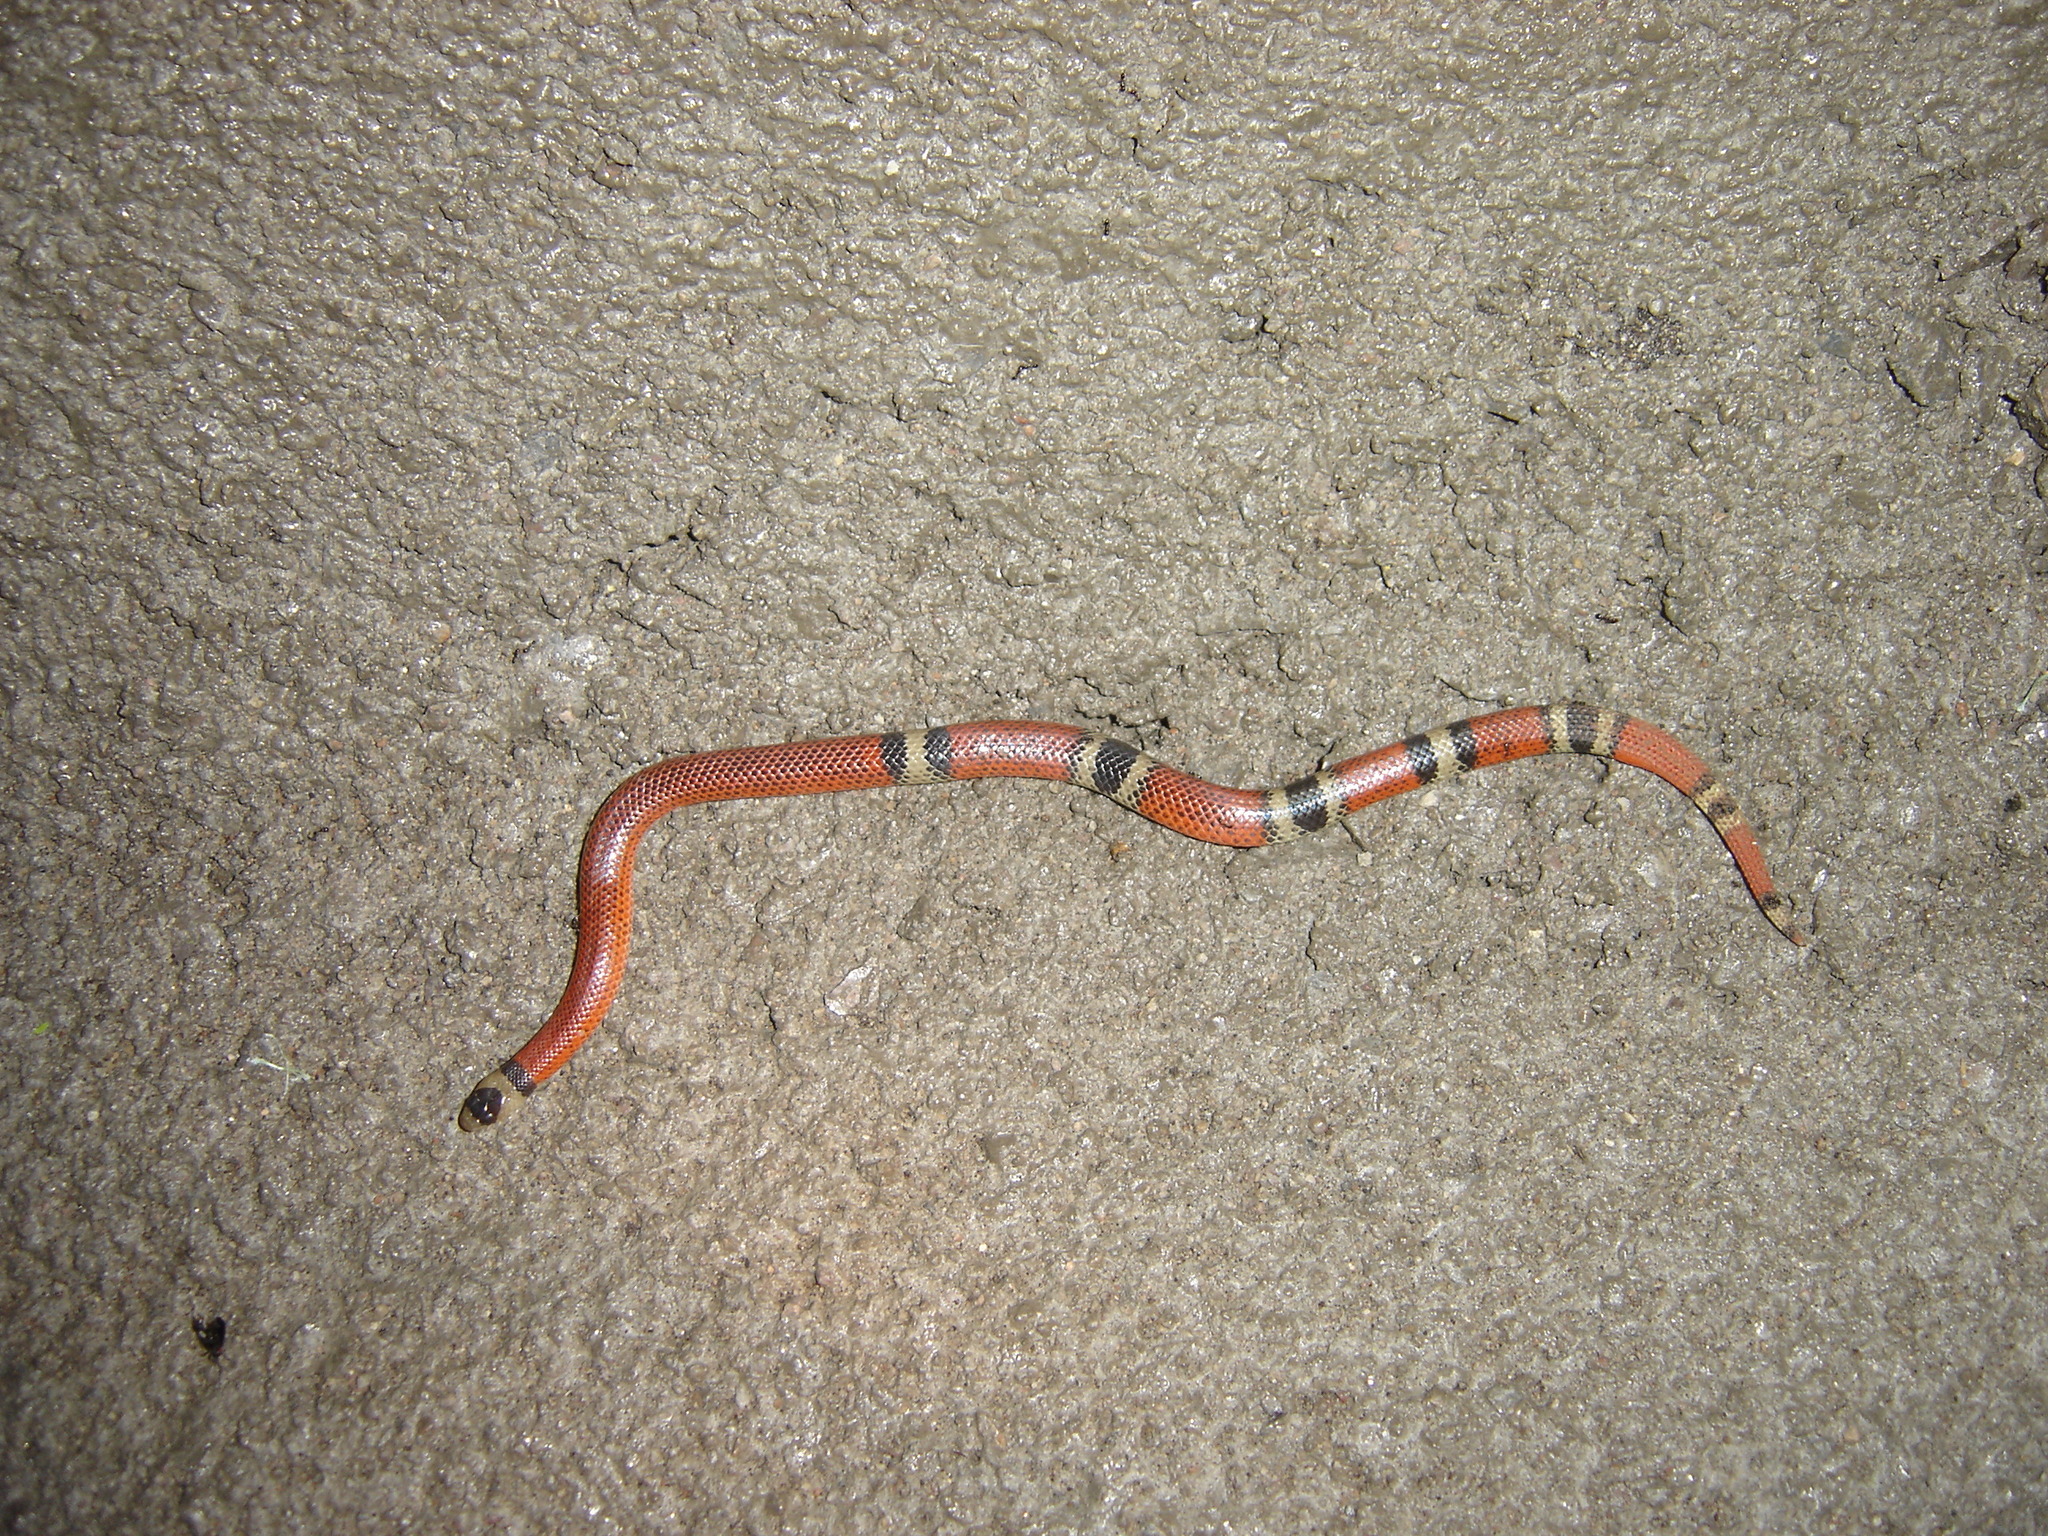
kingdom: Animalia
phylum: Chordata
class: Squamata
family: Colubridae
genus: Sonora
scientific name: Sonora aemula
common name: Filetail ground snake
